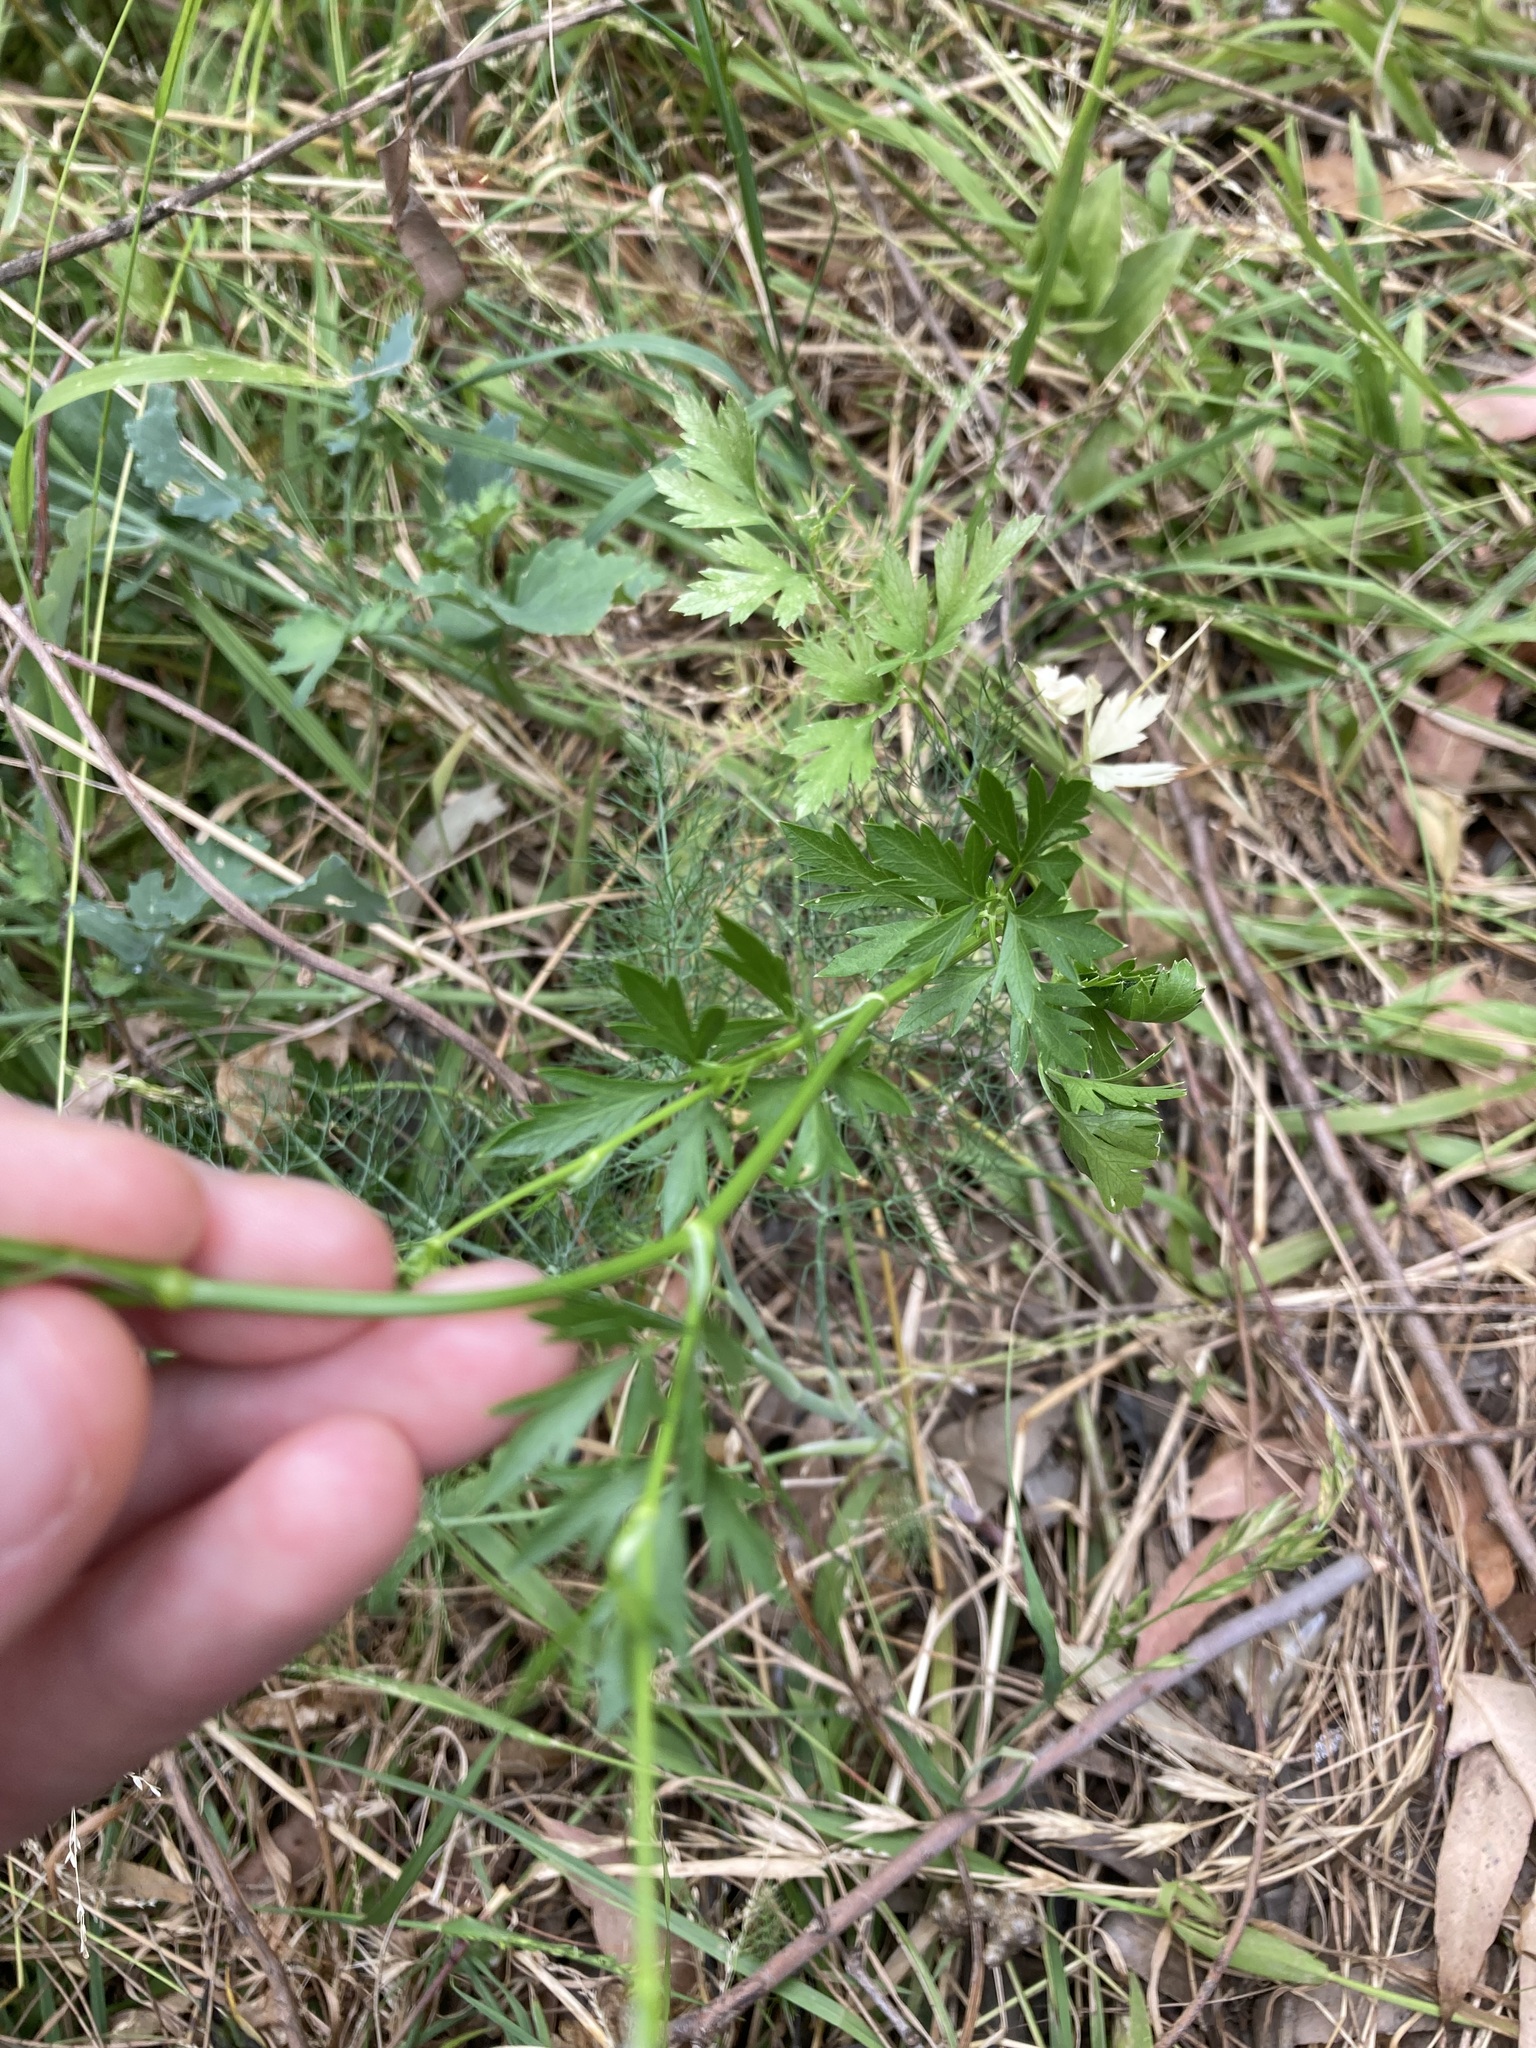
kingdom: Plantae
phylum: Tracheophyta
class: Magnoliopsida
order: Apiales
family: Apiaceae
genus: Petroselinum
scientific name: Petroselinum crispum
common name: Parsley
